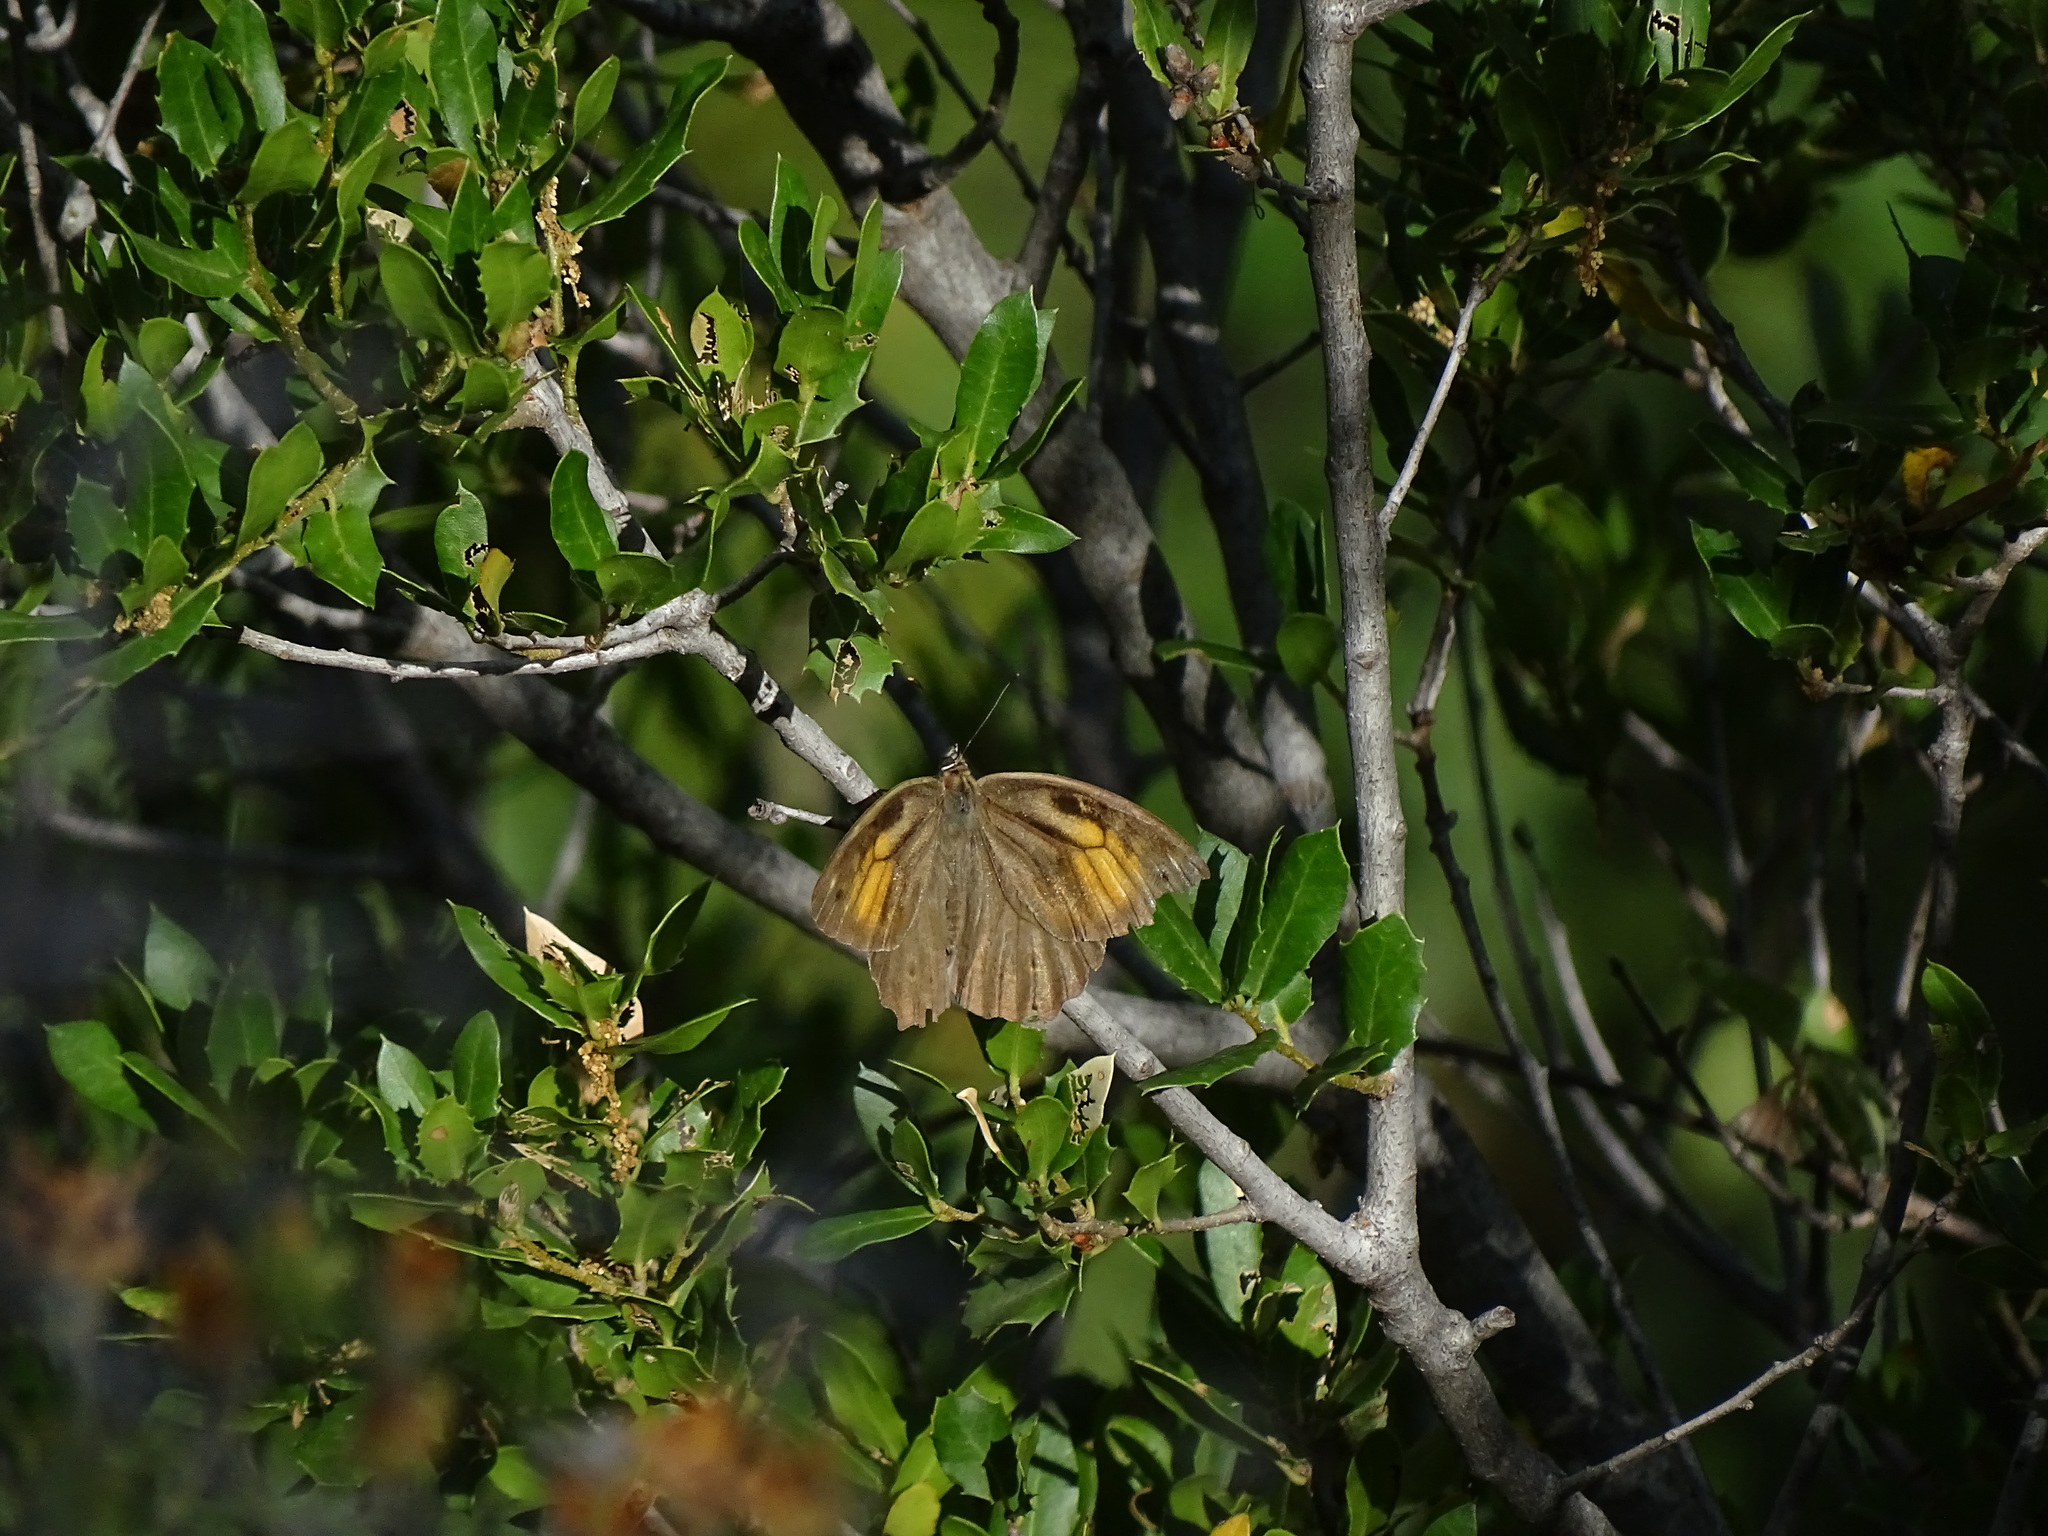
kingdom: Animalia
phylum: Arthropoda
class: Insecta
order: Lepidoptera
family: Nymphalidae
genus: Kirinia
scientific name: Kirinia roxelana
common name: Lattice brown
